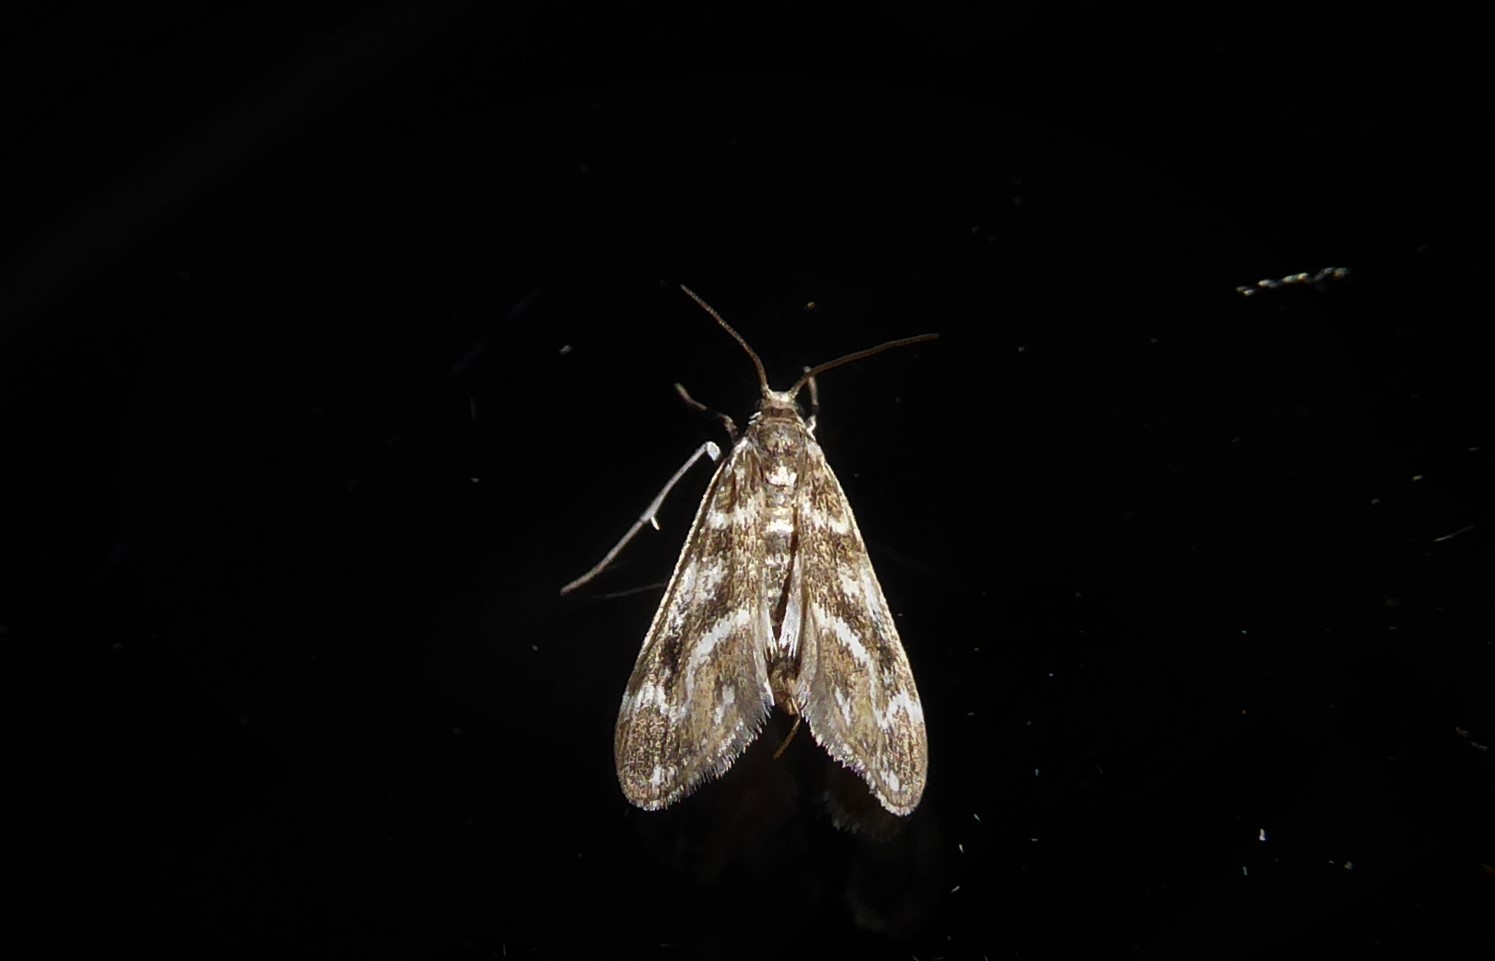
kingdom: Animalia
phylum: Arthropoda
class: Insecta
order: Lepidoptera
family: Crambidae
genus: Hygraula
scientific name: Hygraula nitens
